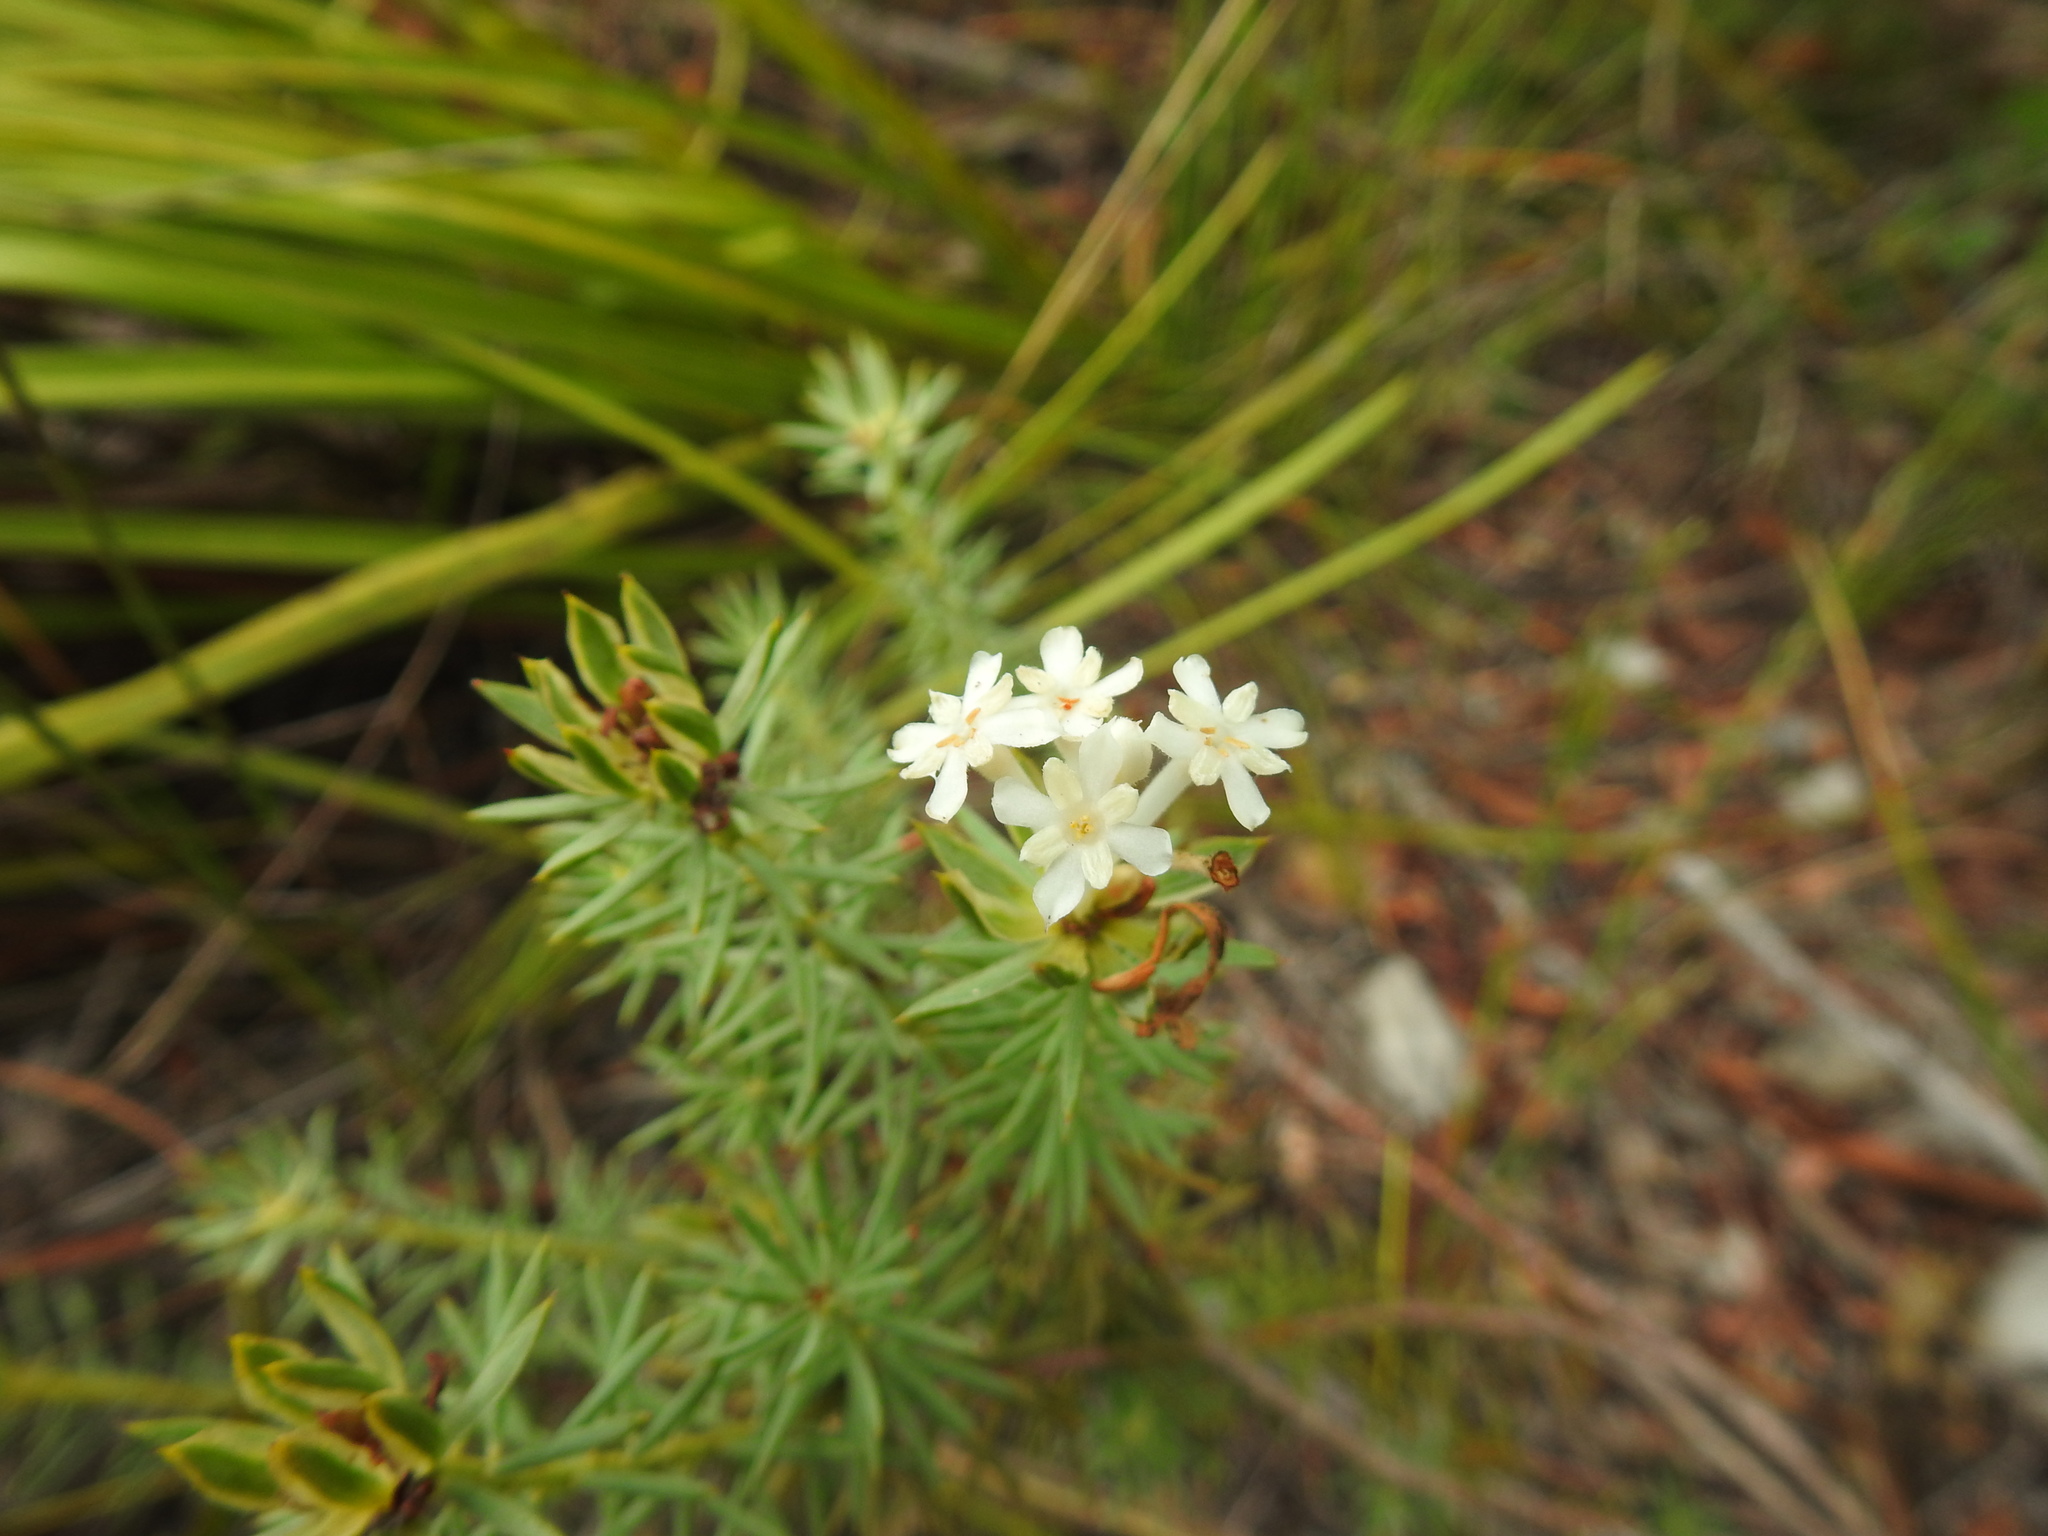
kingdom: Plantae
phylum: Tracheophyta
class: Magnoliopsida
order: Malvales
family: Thymelaeaceae
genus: Gnidia
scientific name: Gnidia pinifolia
